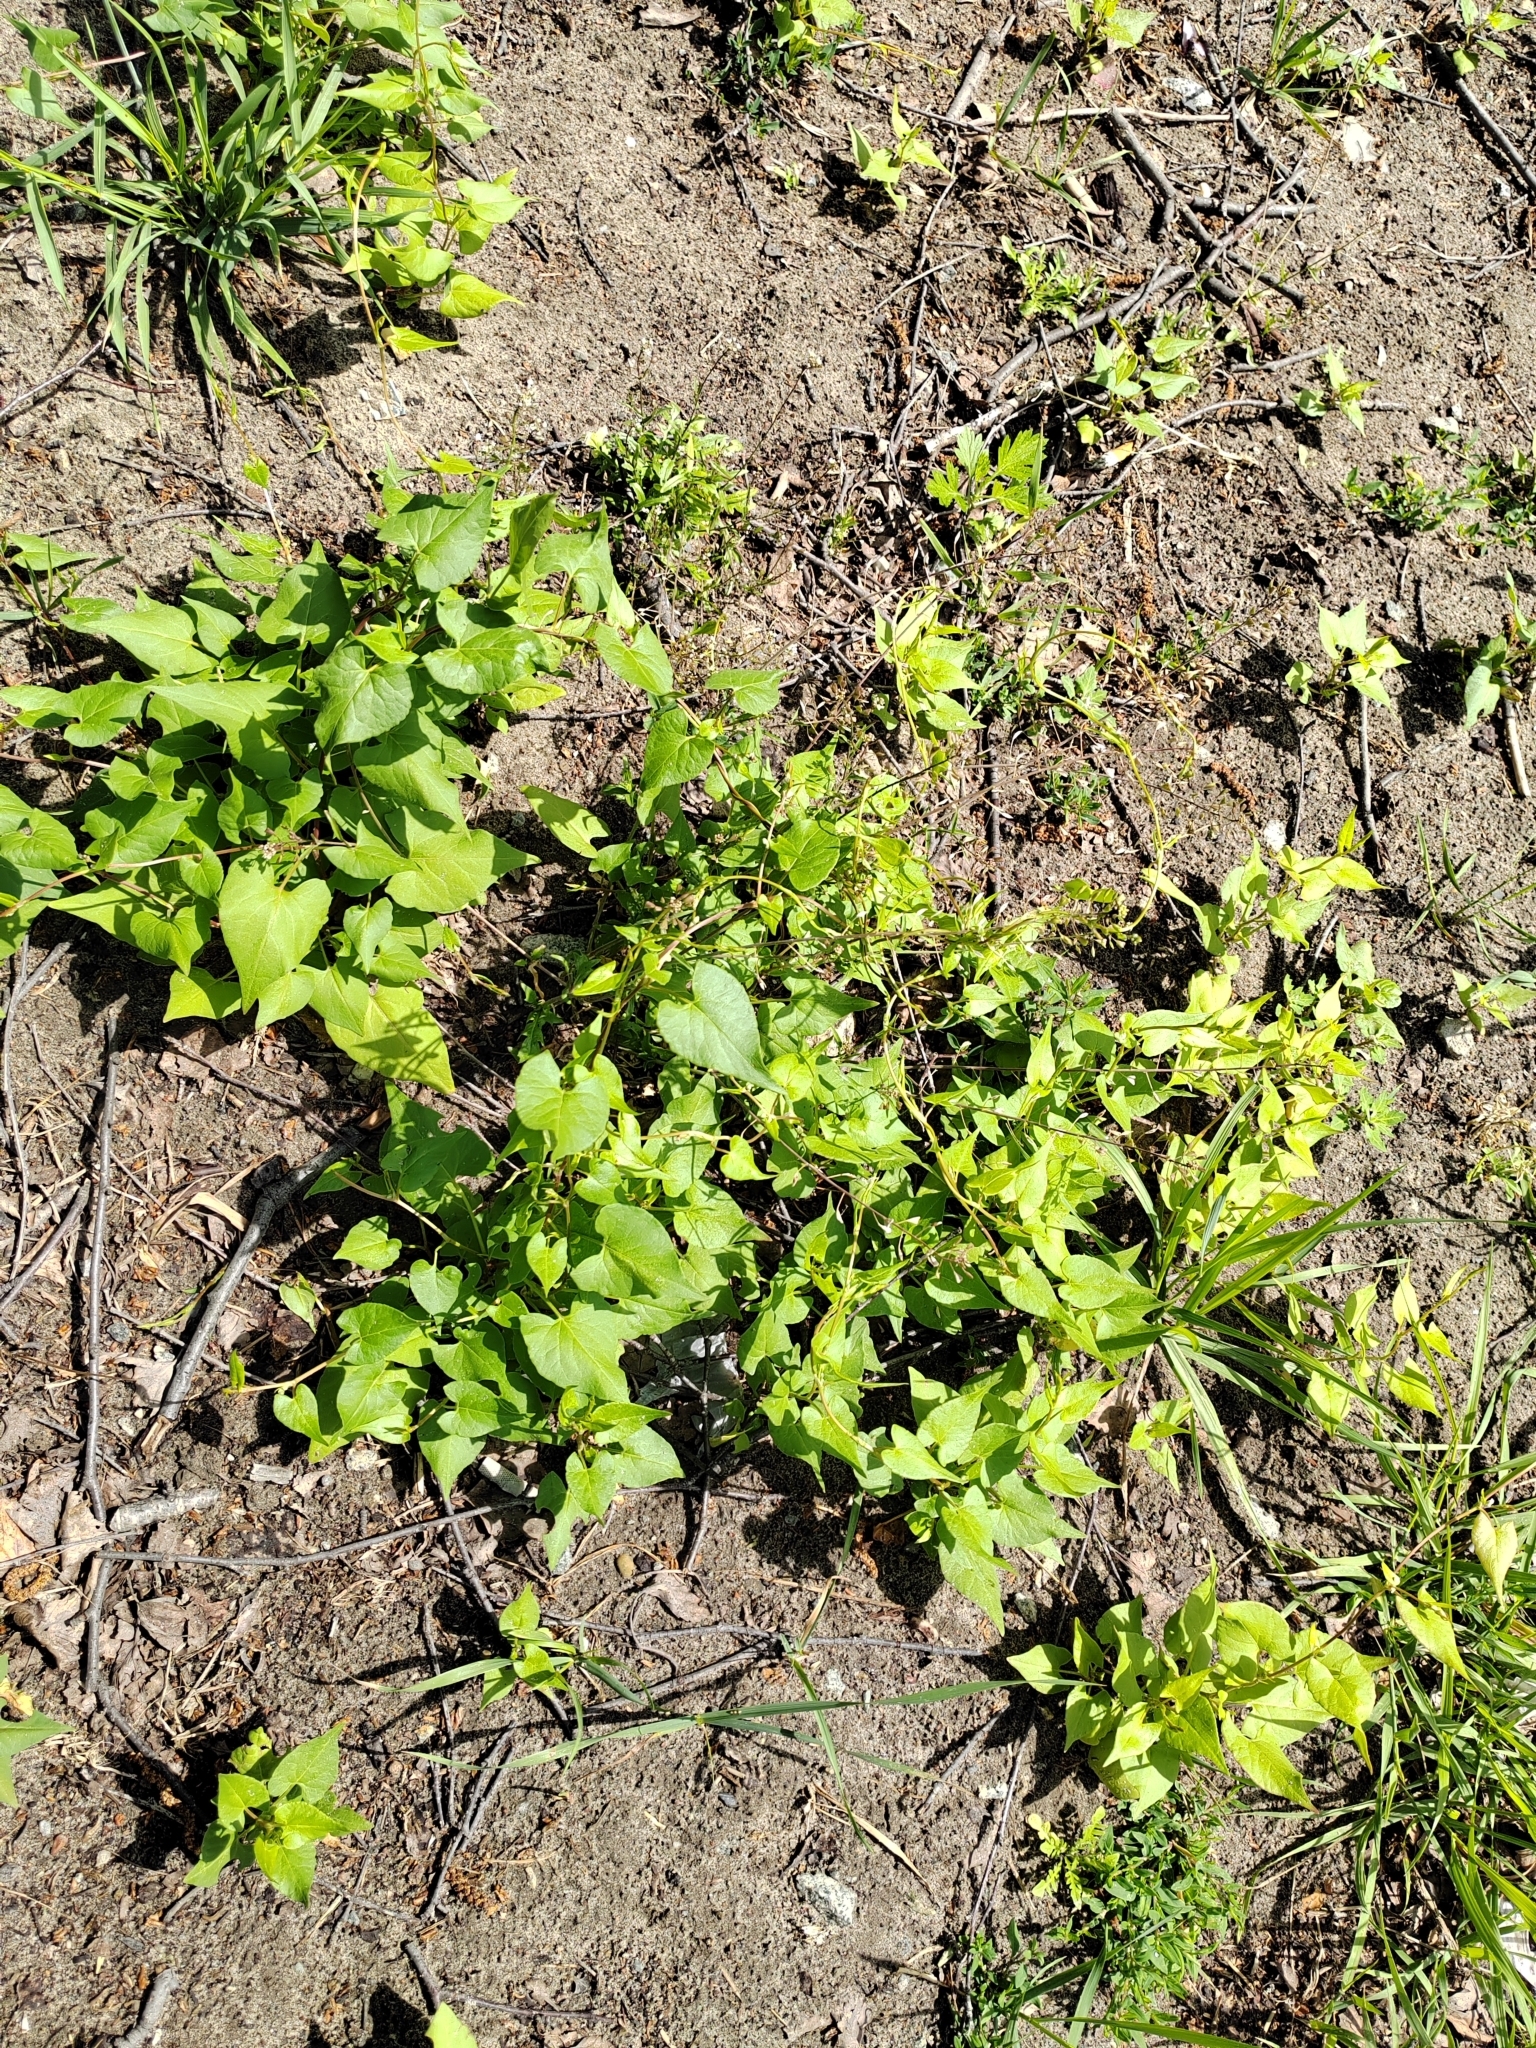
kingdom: Plantae
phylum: Tracheophyta
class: Magnoliopsida
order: Caryophyllales
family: Polygonaceae
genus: Fallopia
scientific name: Fallopia convolvulus
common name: Black bindweed
